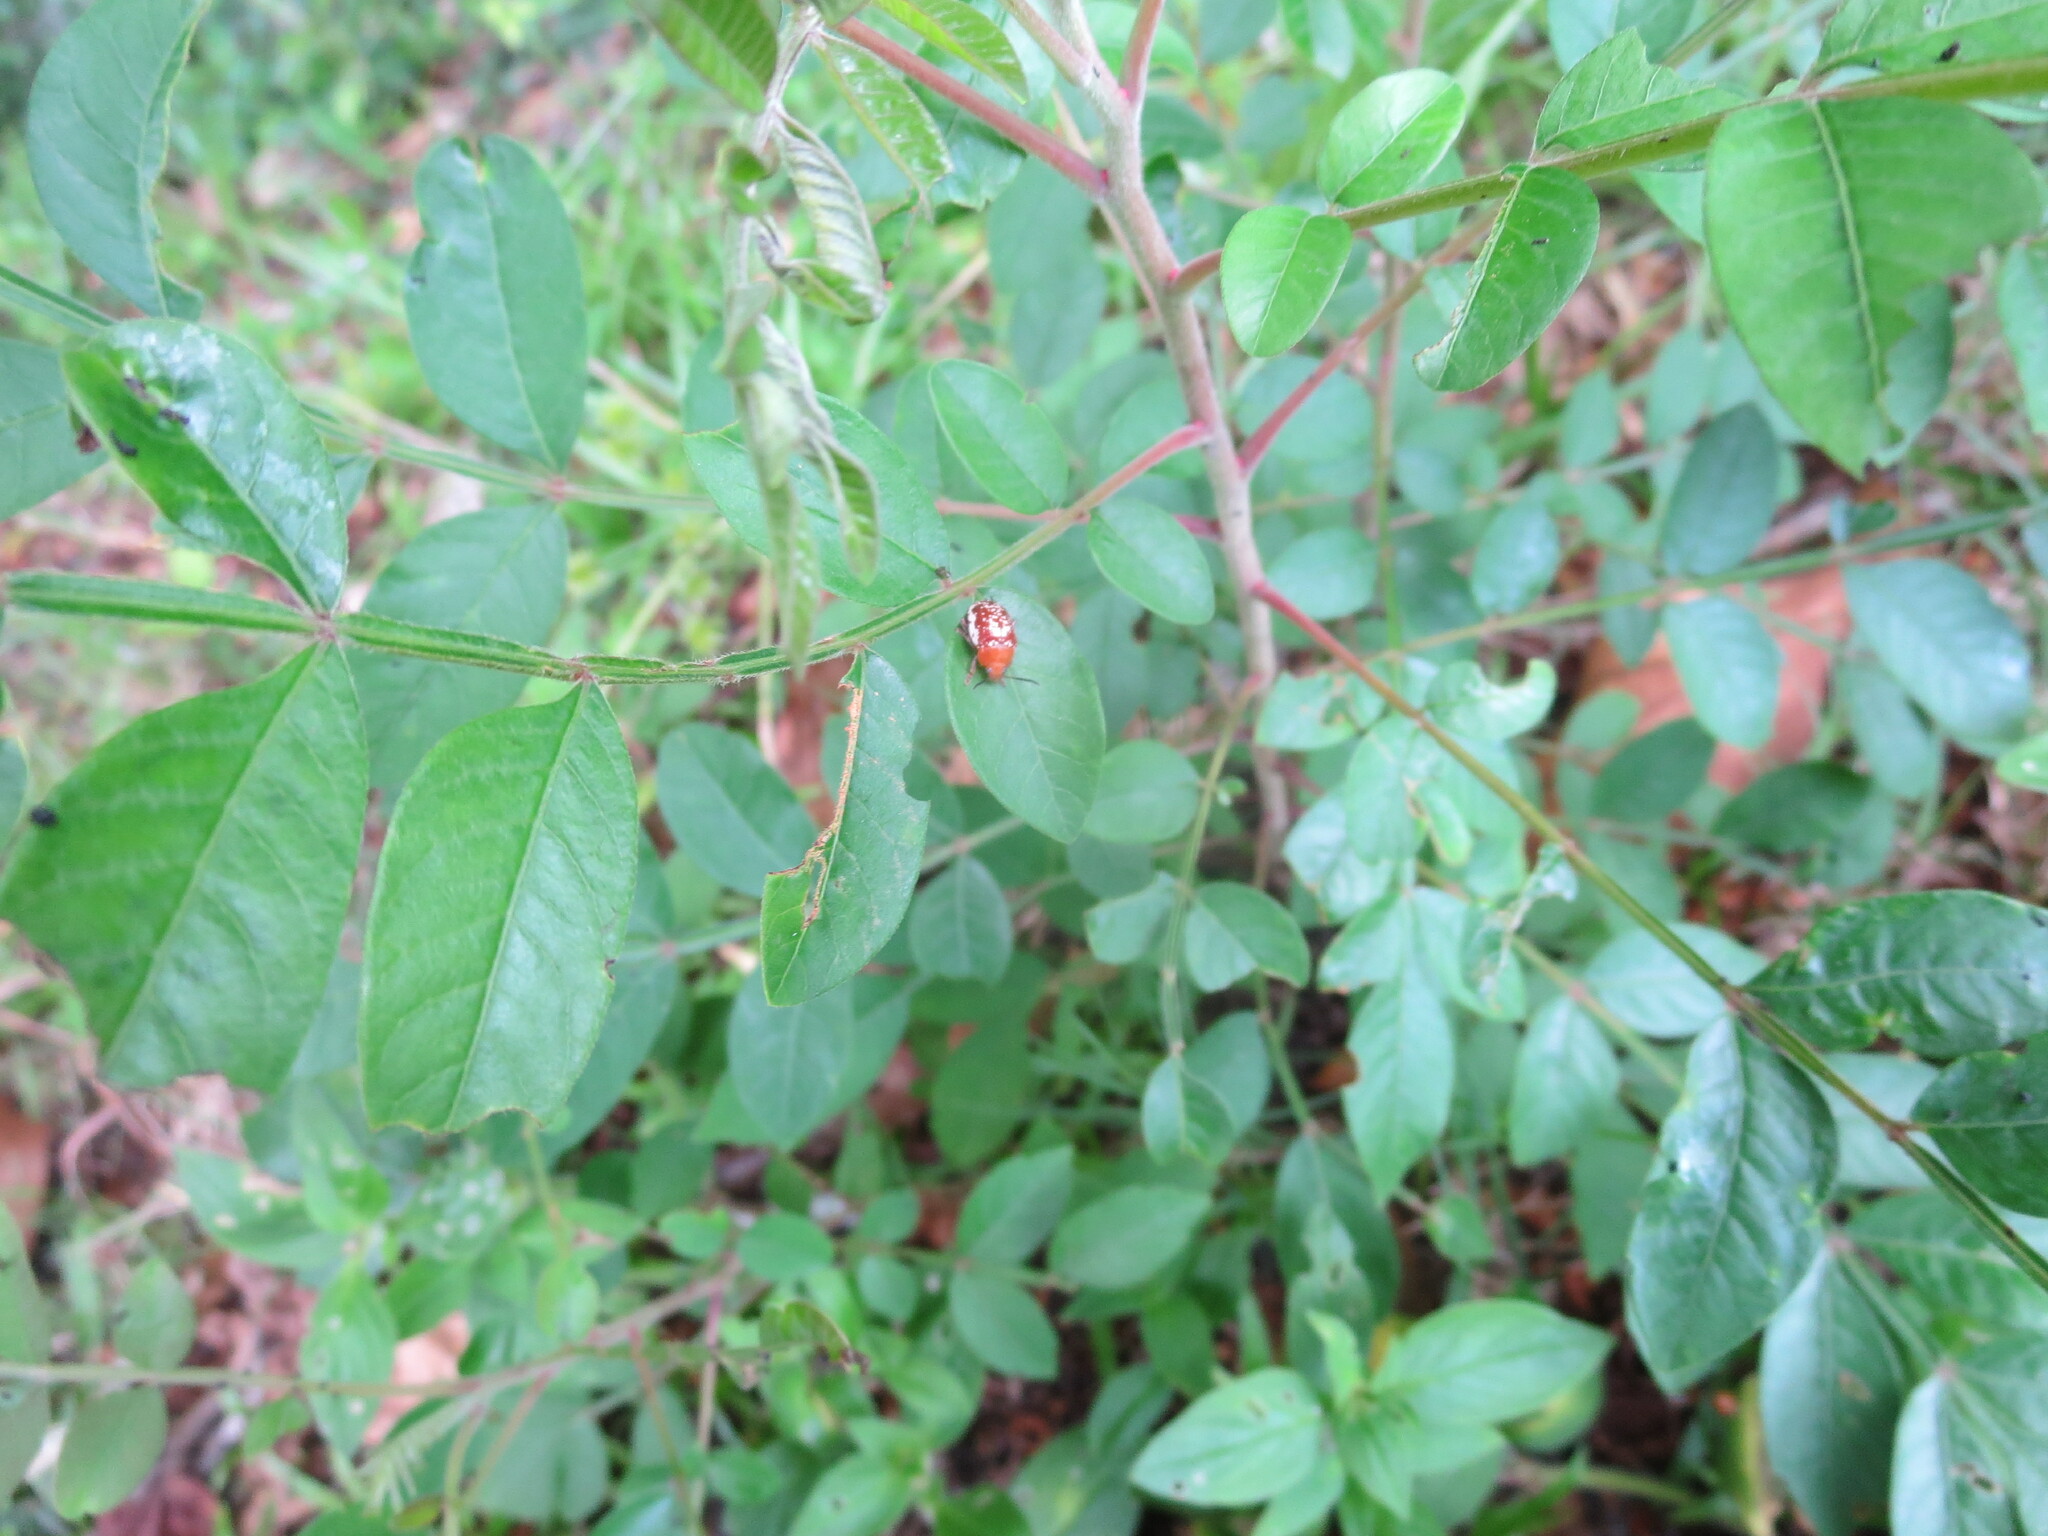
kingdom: Animalia
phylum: Arthropoda
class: Insecta
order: Coleoptera
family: Chrysomelidae
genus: Blepharida
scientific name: Blepharida rhois
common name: Sumac flea beetle
